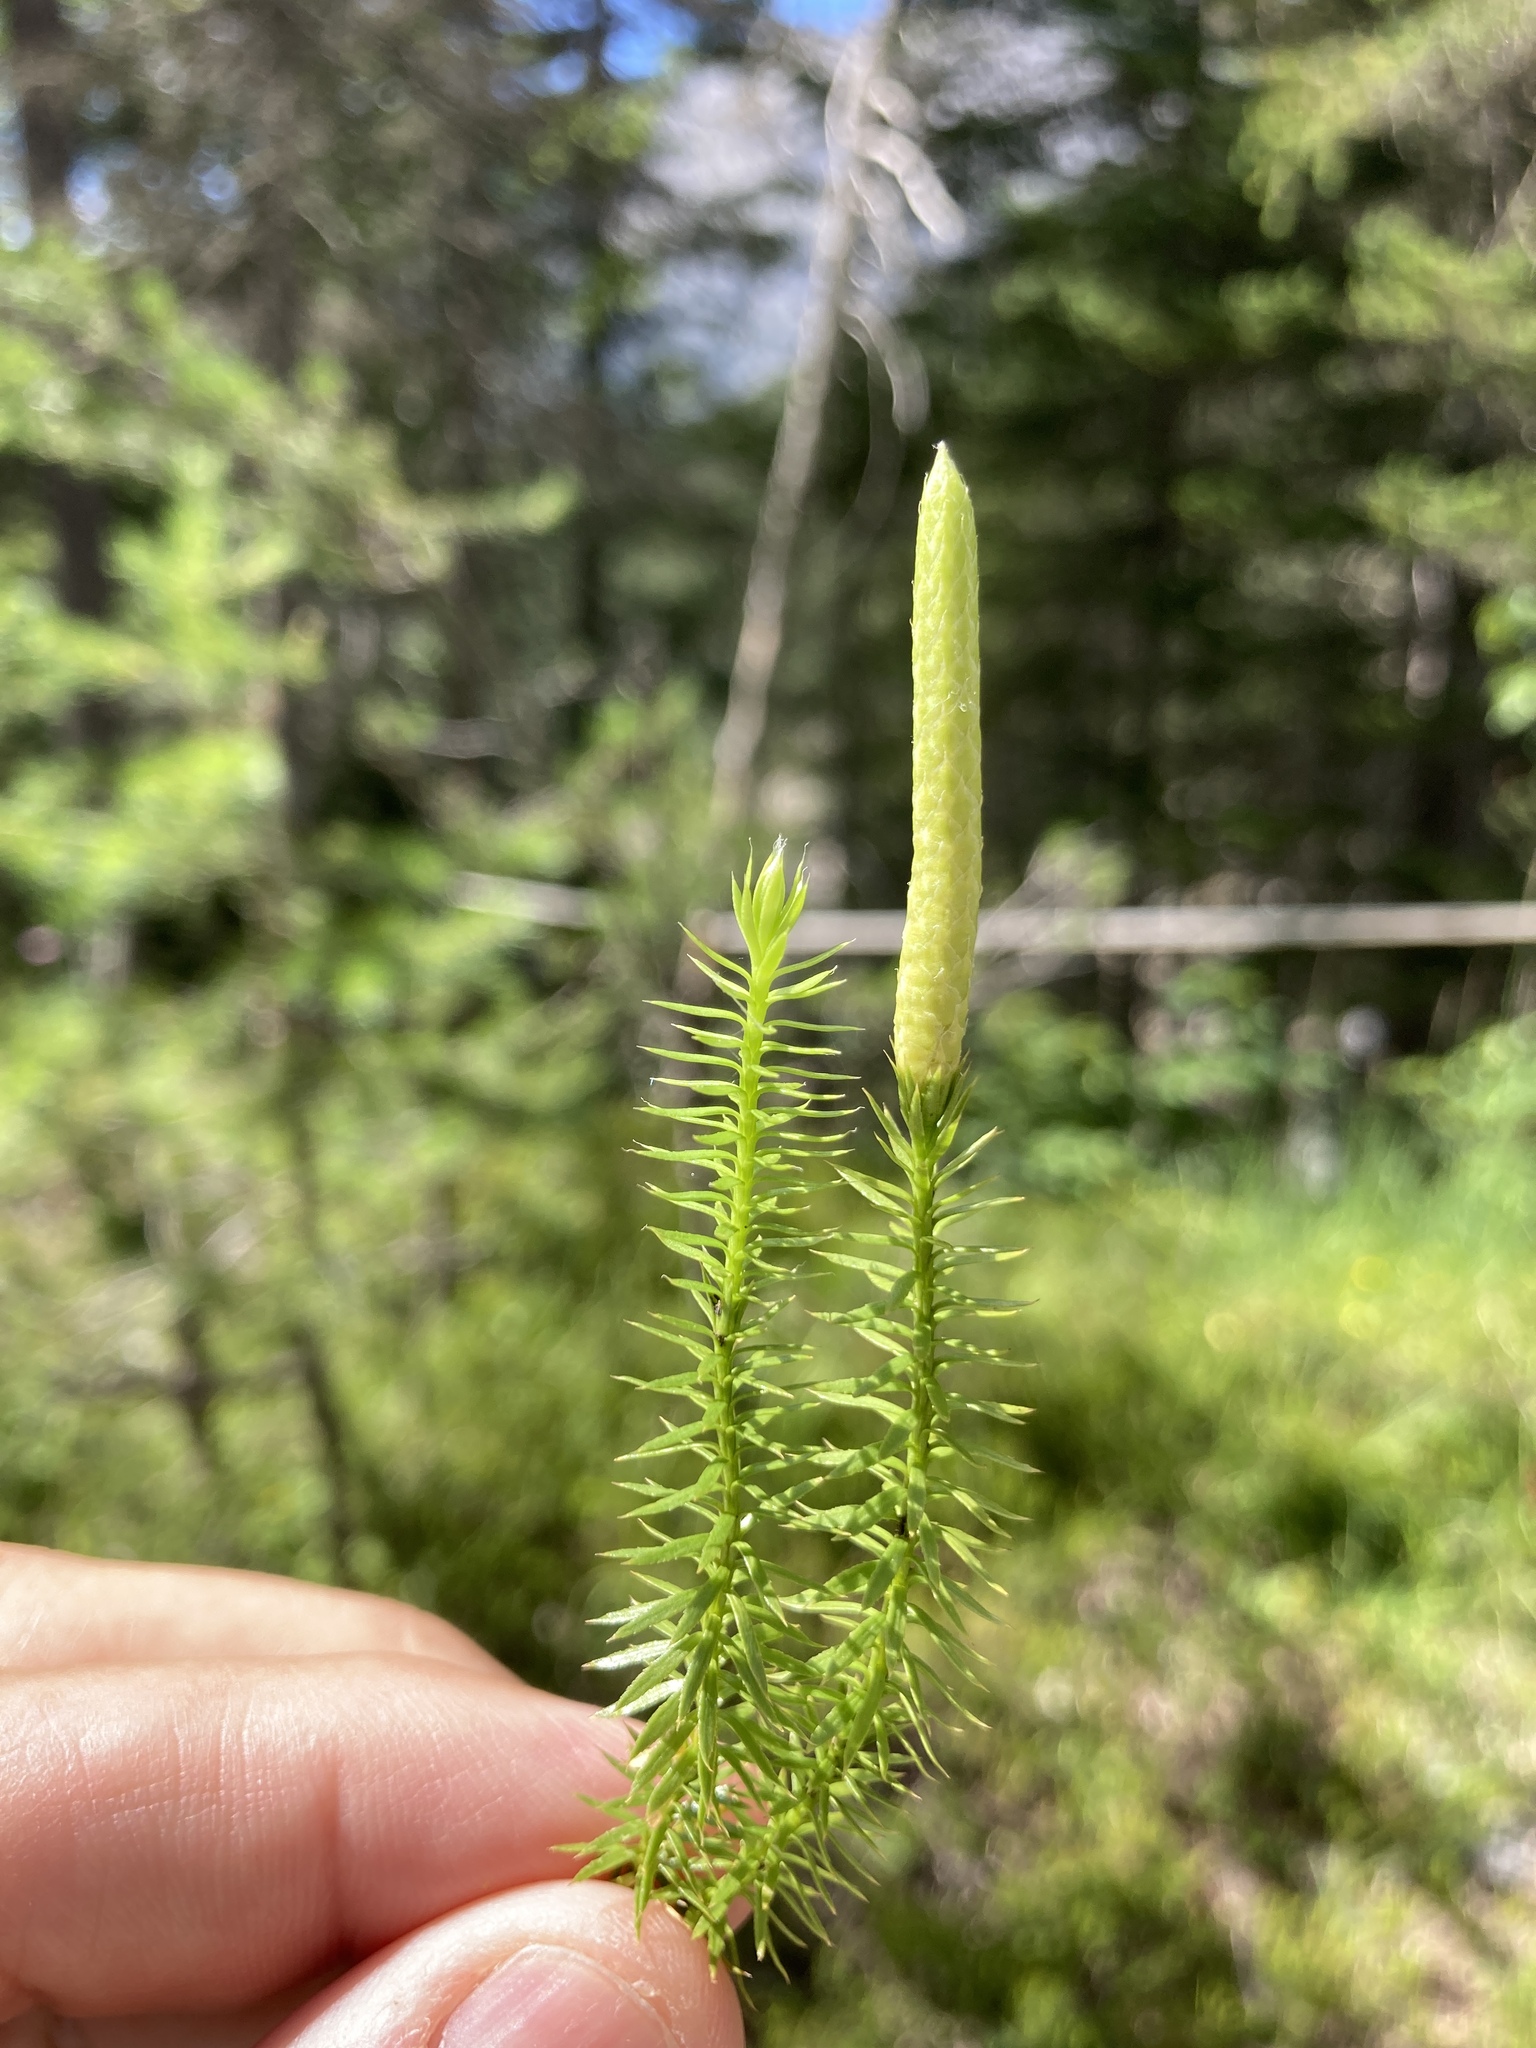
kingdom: Plantae
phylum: Tracheophyta
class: Lycopodiopsida
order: Lycopodiales
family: Lycopodiaceae
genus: Spinulum
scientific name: Spinulum annotinum
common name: Interrupted club-moss
